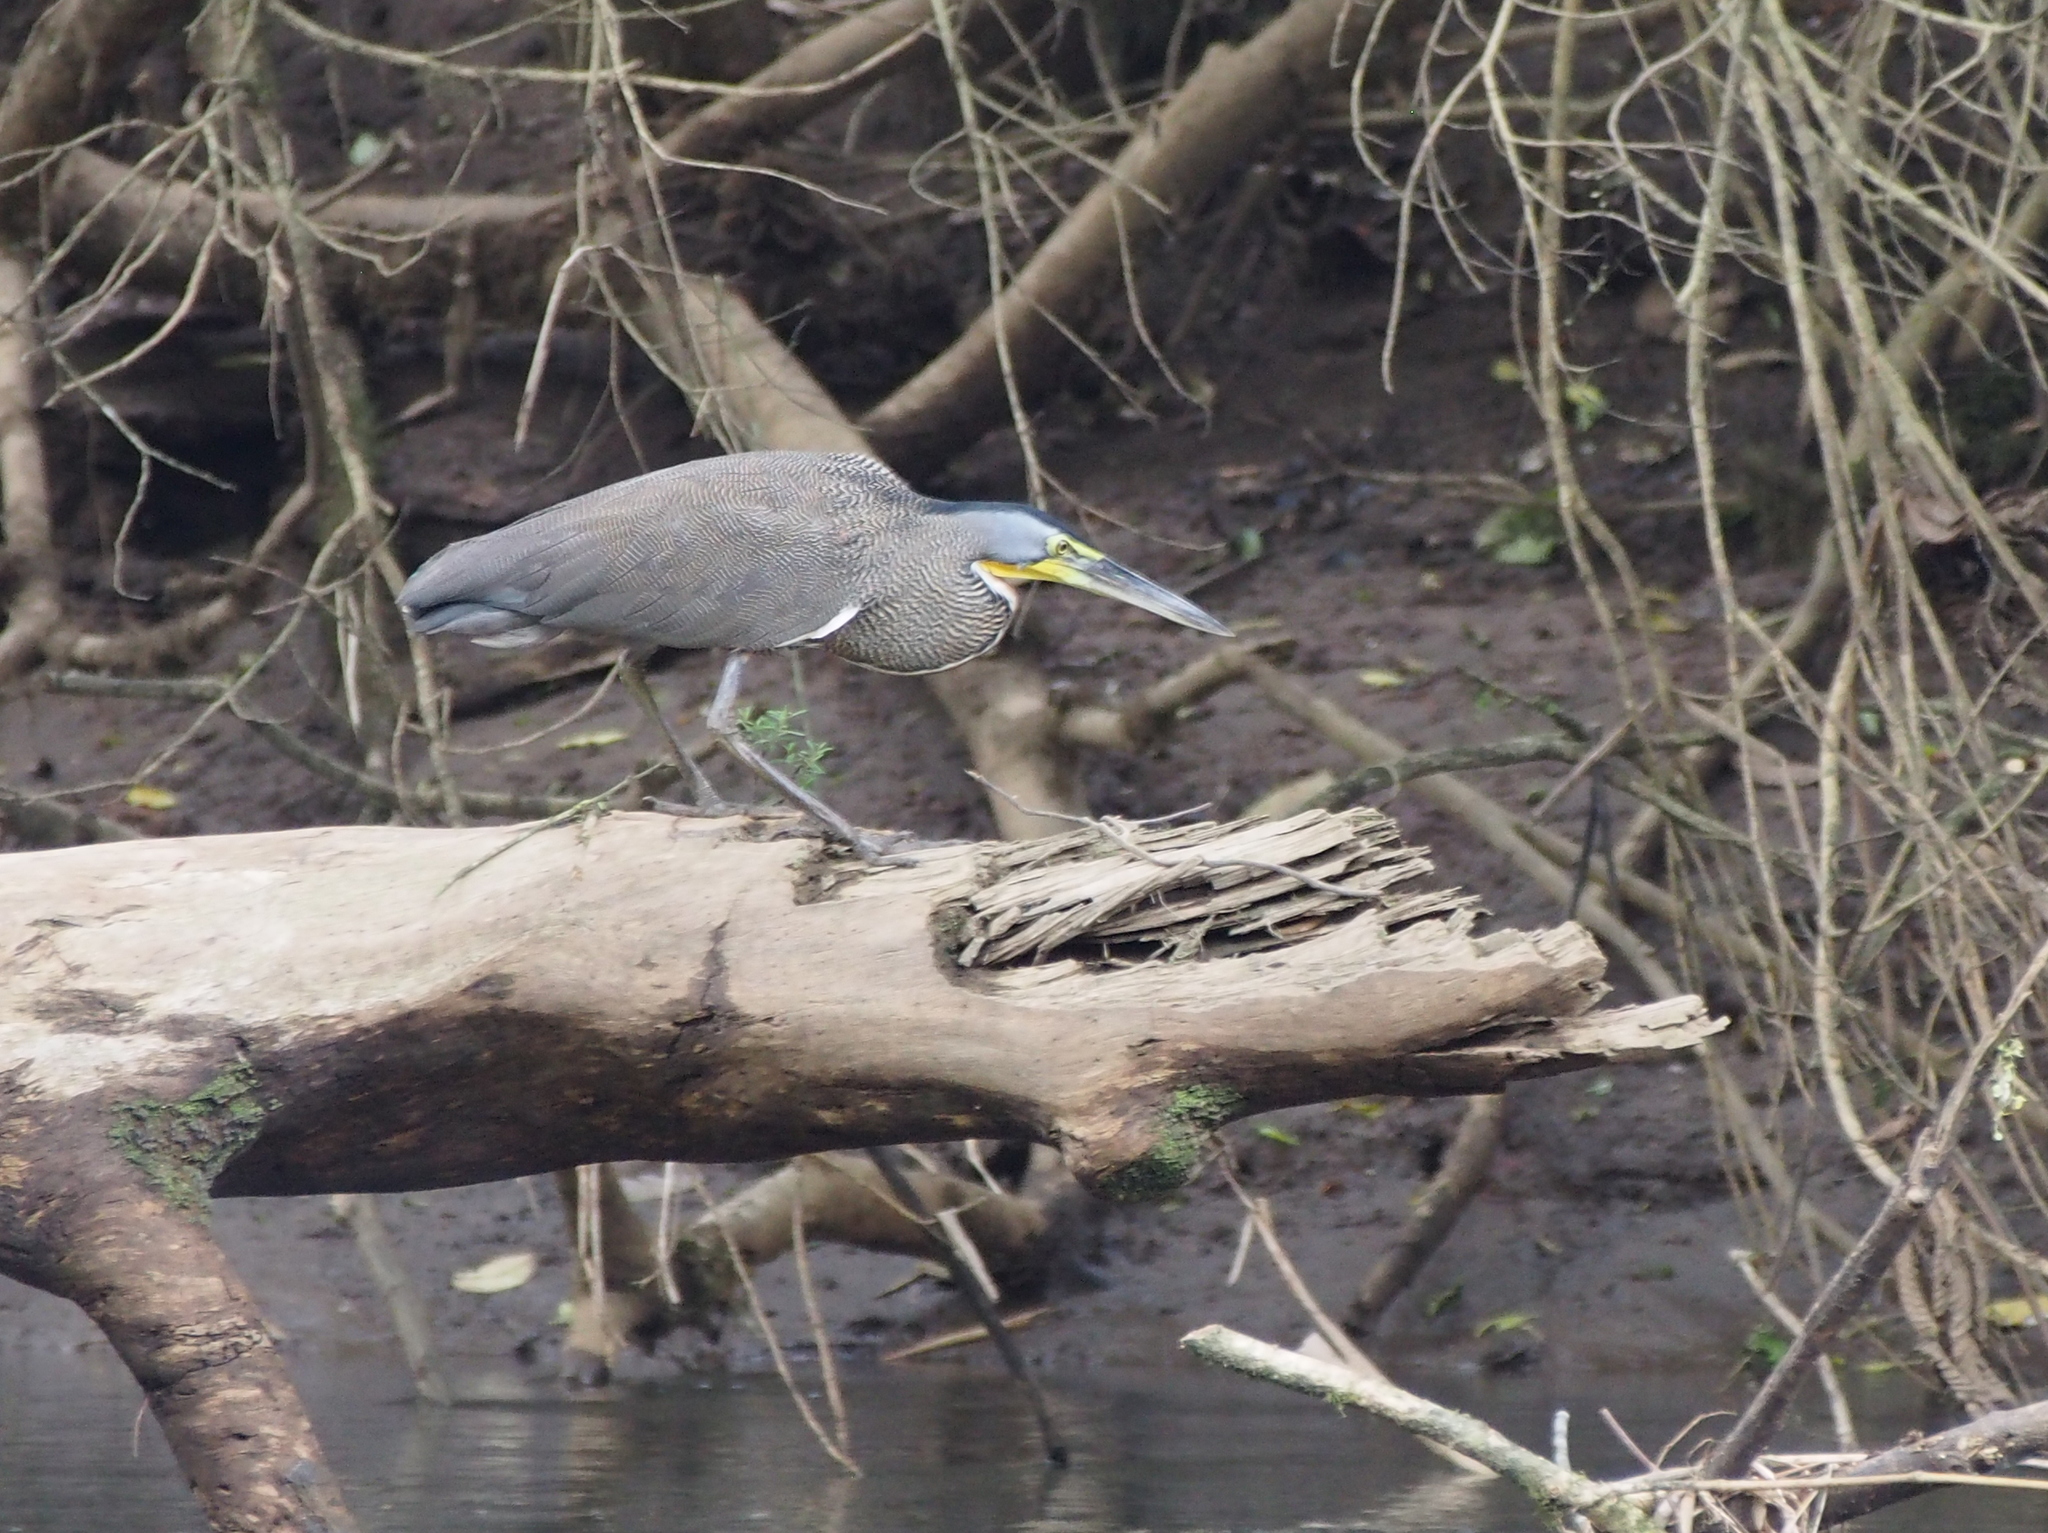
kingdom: Animalia
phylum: Chordata
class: Aves
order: Pelecaniformes
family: Ardeidae
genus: Tigrisoma
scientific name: Tigrisoma mexicanum
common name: Bare-throated tiger-heron
